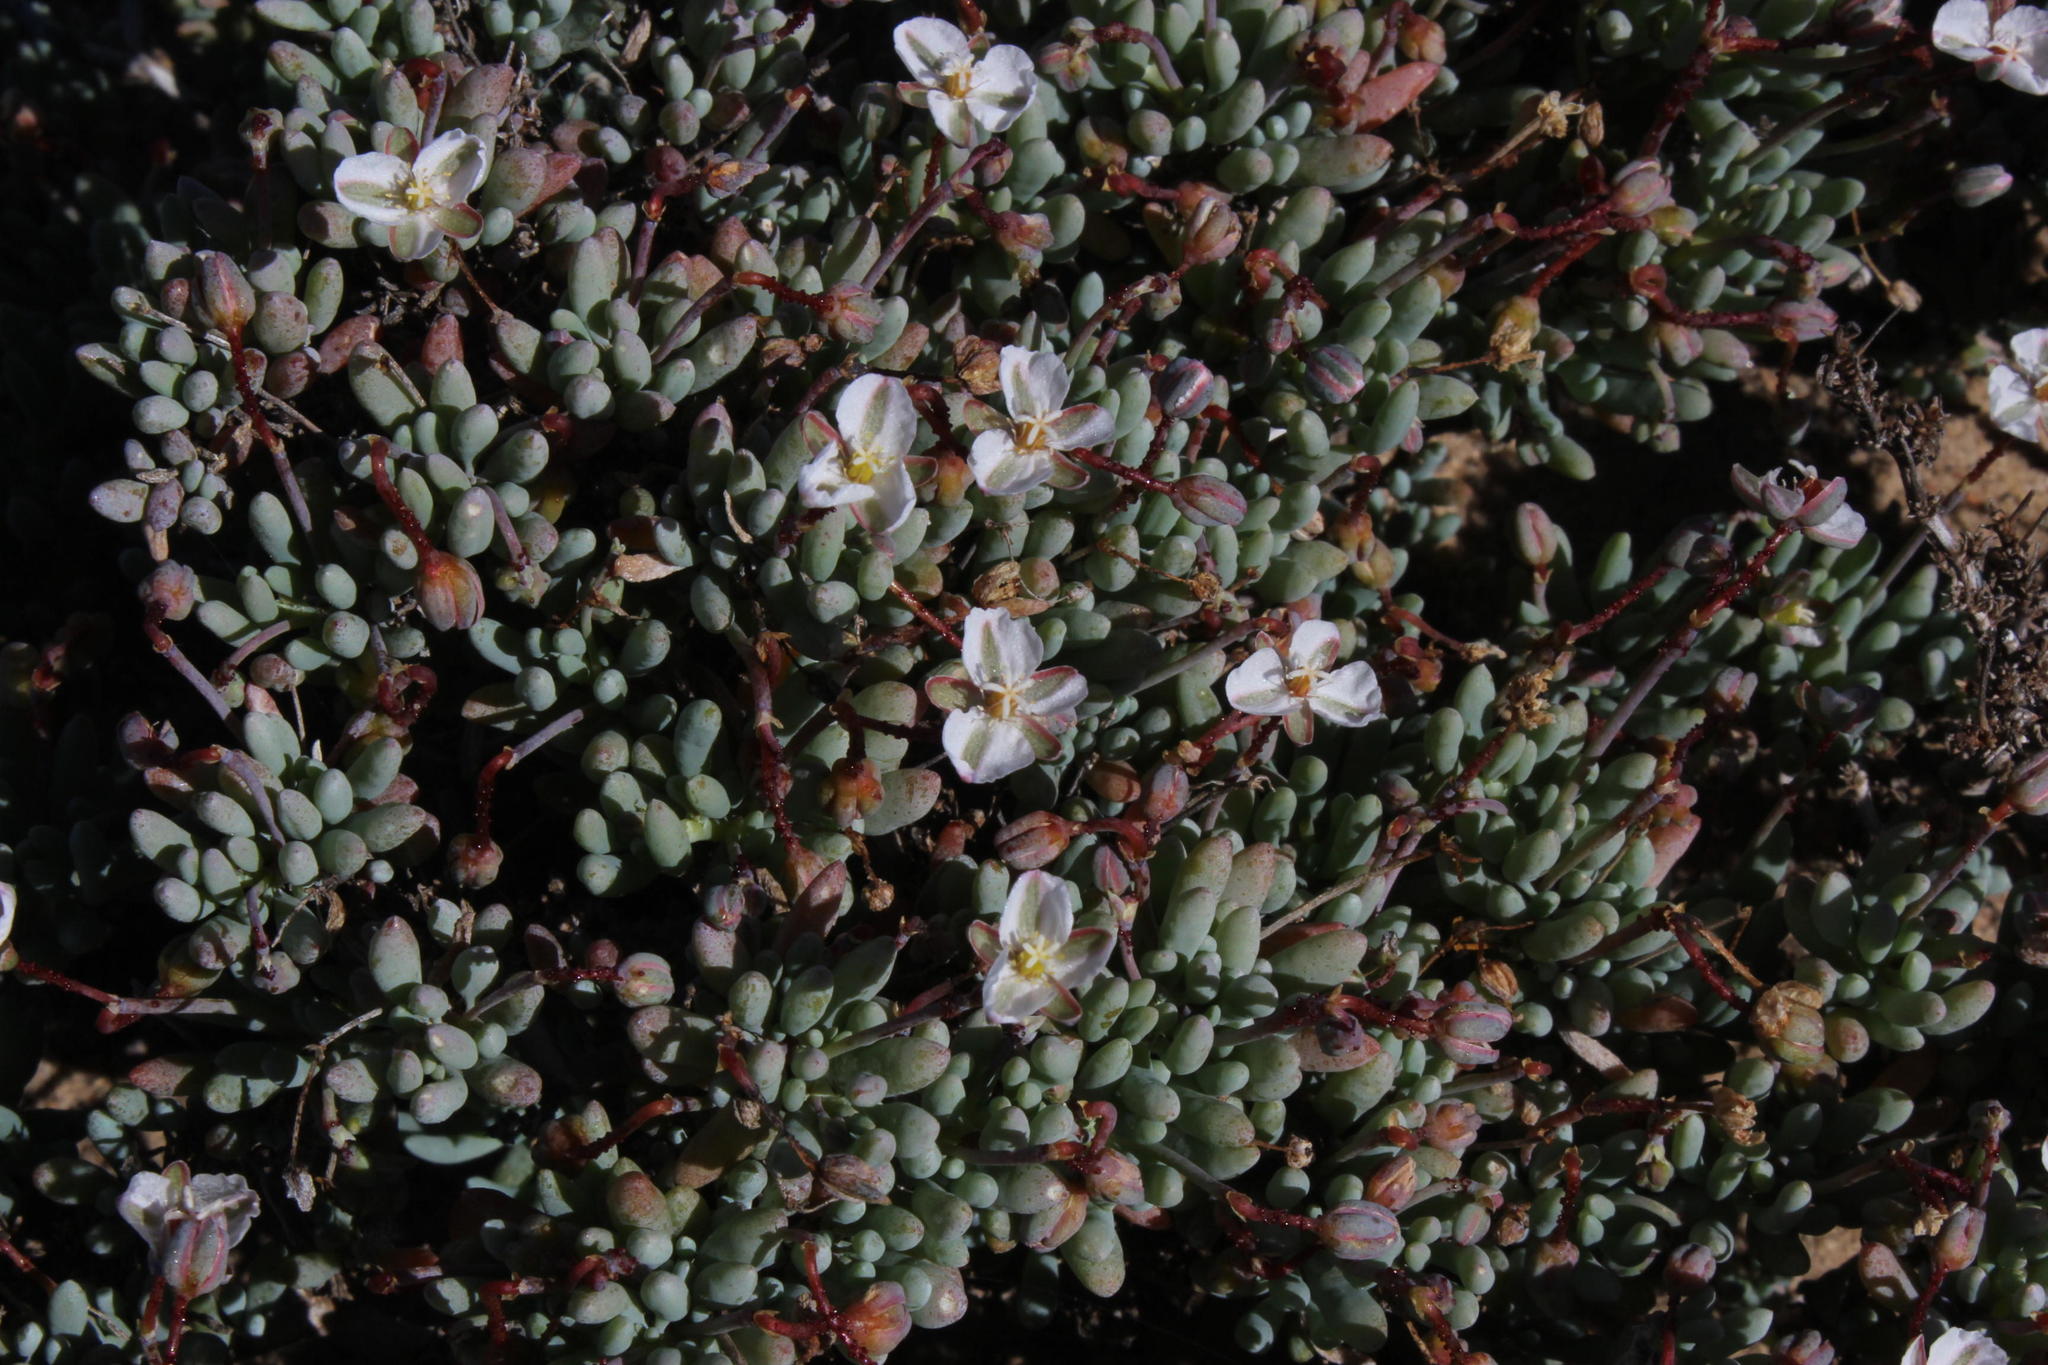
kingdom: Plantae
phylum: Tracheophyta
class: Magnoliopsida
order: Caryophyllales
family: Kewaceae
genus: Kewa
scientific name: Kewa angrae-pequenae
